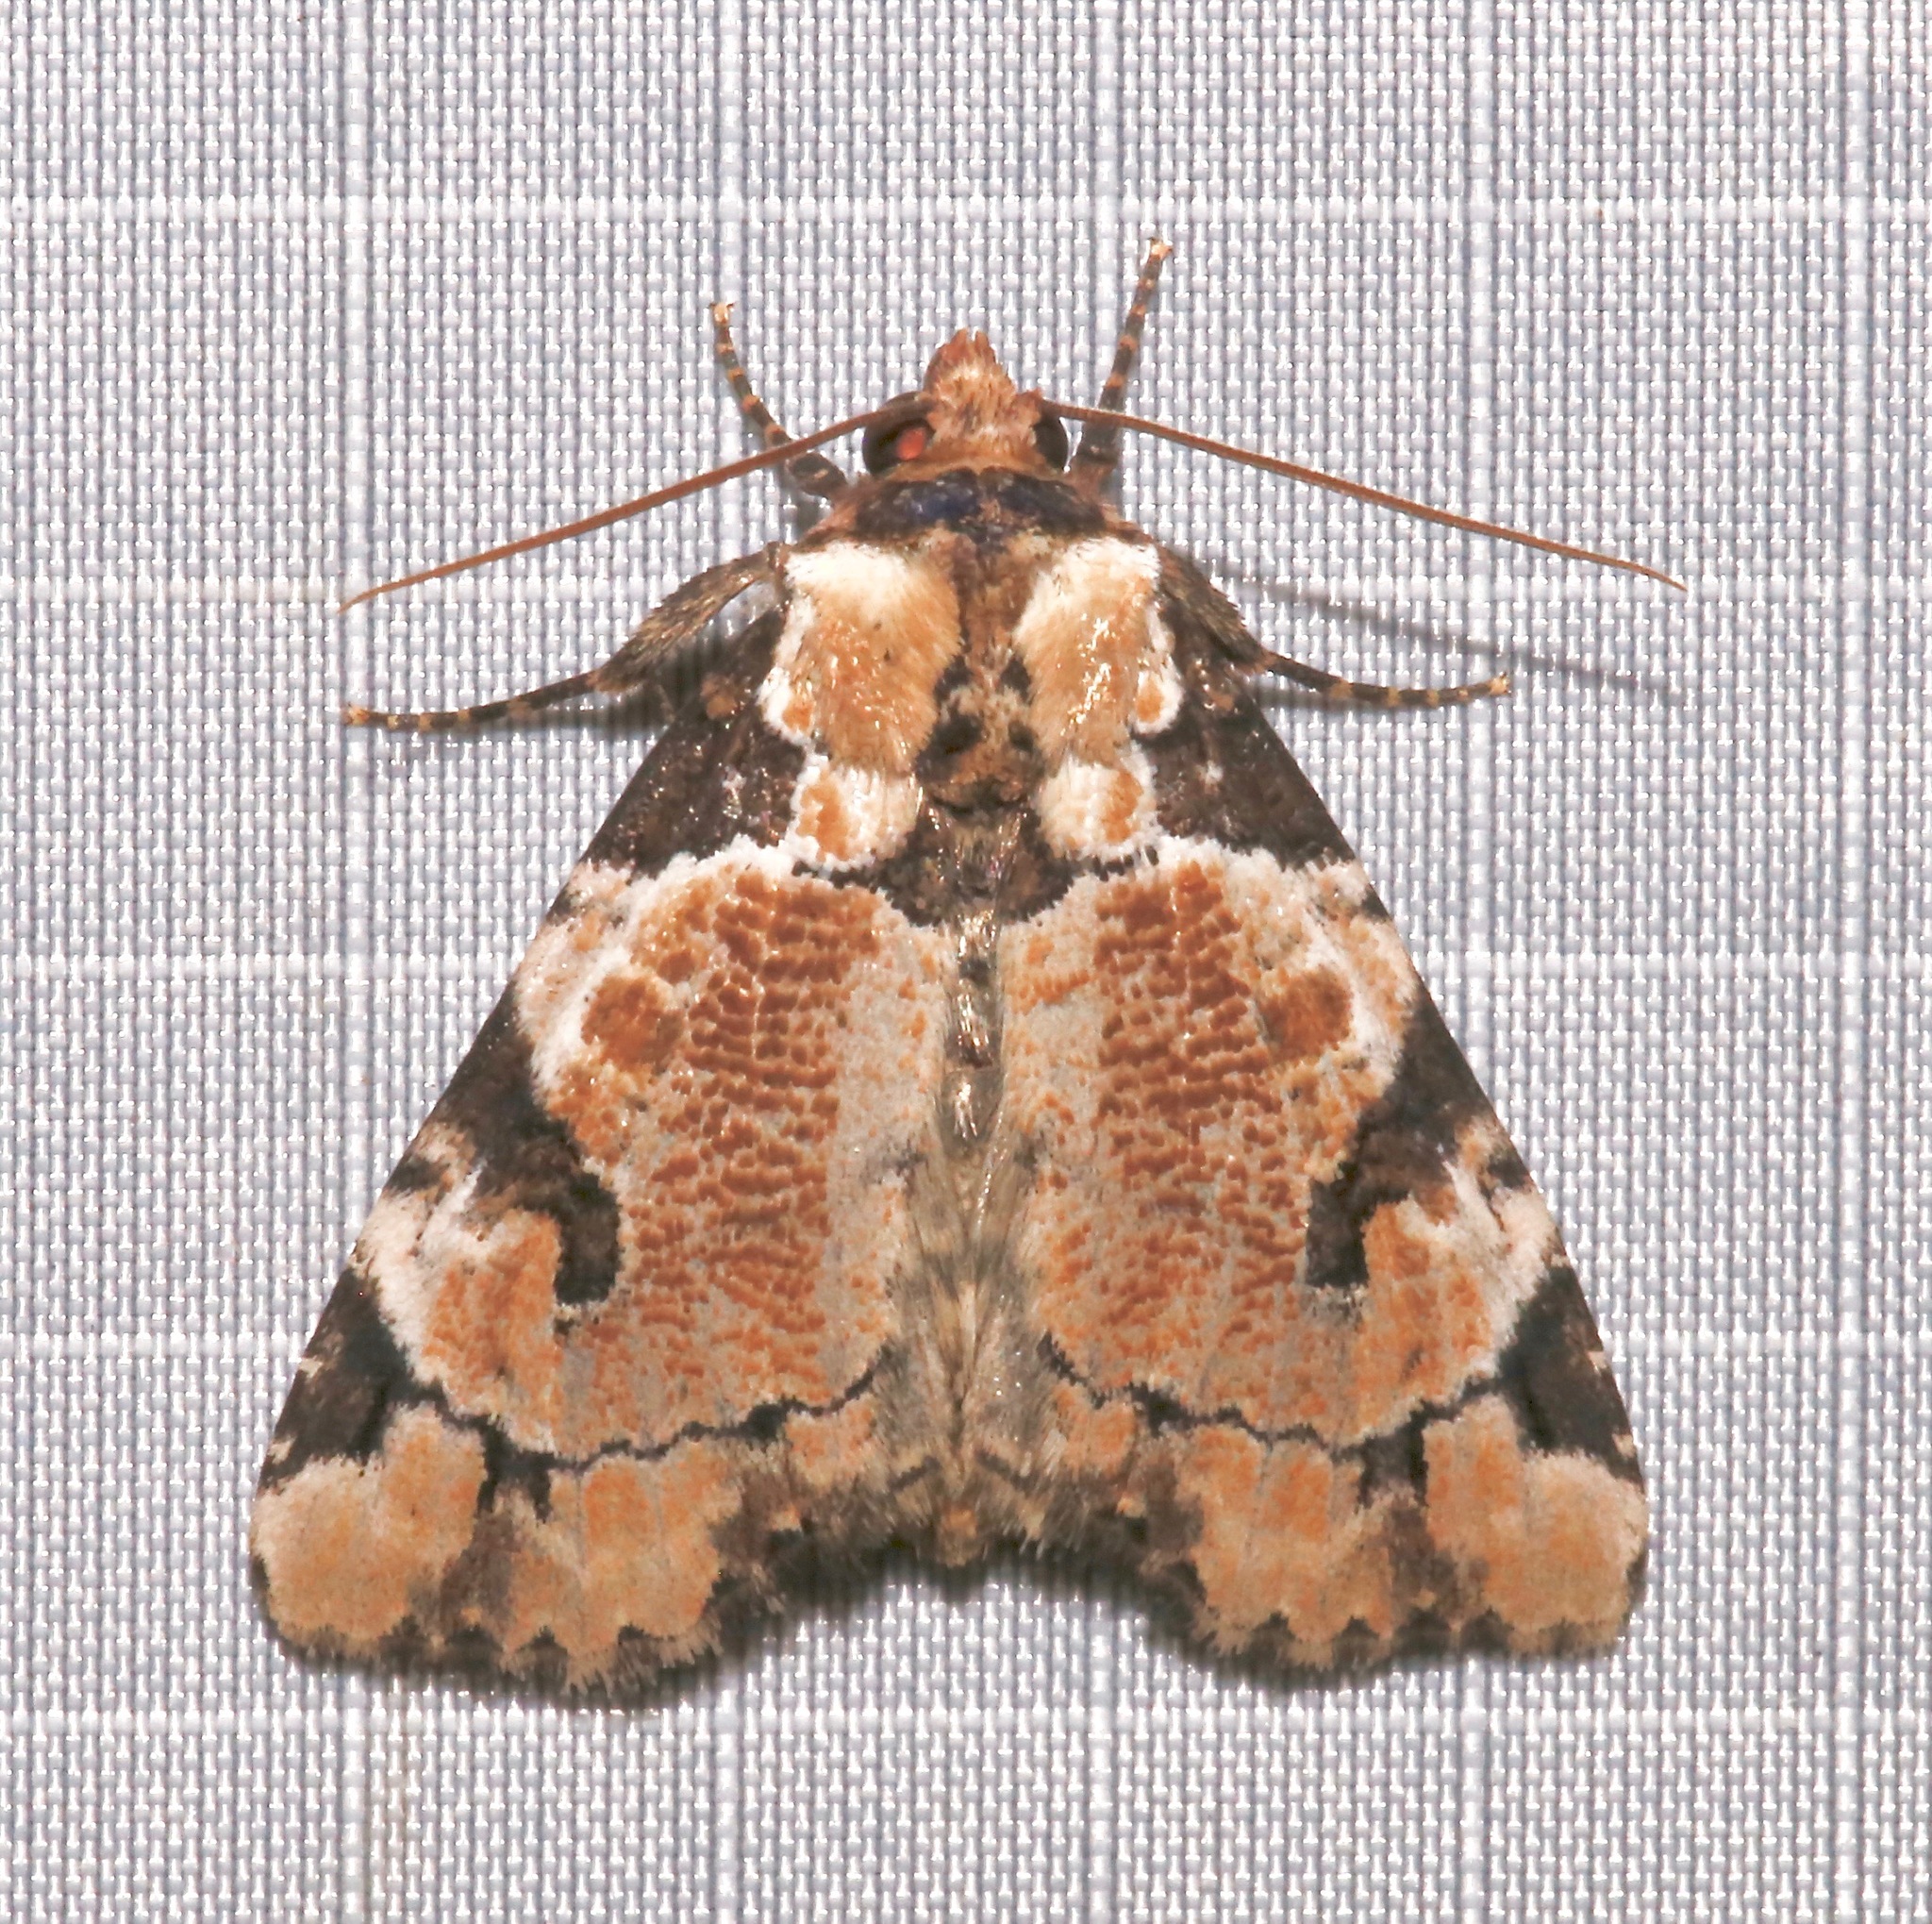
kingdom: Animalia
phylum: Arthropoda
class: Insecta
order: Lepidoptera
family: Noctuidae
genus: Stibaera
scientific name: Stibaera thyatiroides
